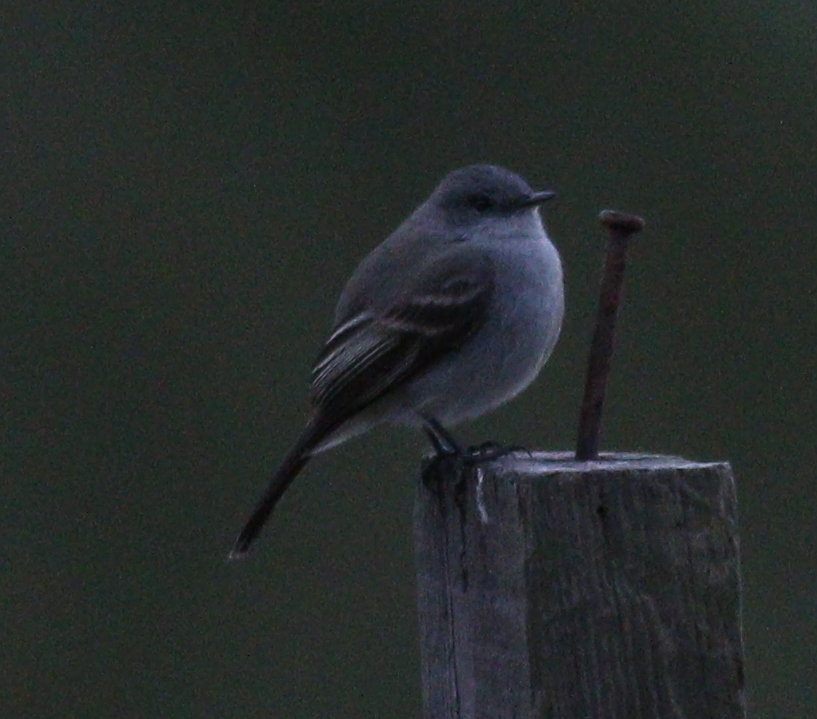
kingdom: Animalia
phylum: Chordata
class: Aves
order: Passeriformes
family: Tyrannidae
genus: Serpophaga
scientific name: Serpophaga nigricans
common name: Sooty tyrannulet
